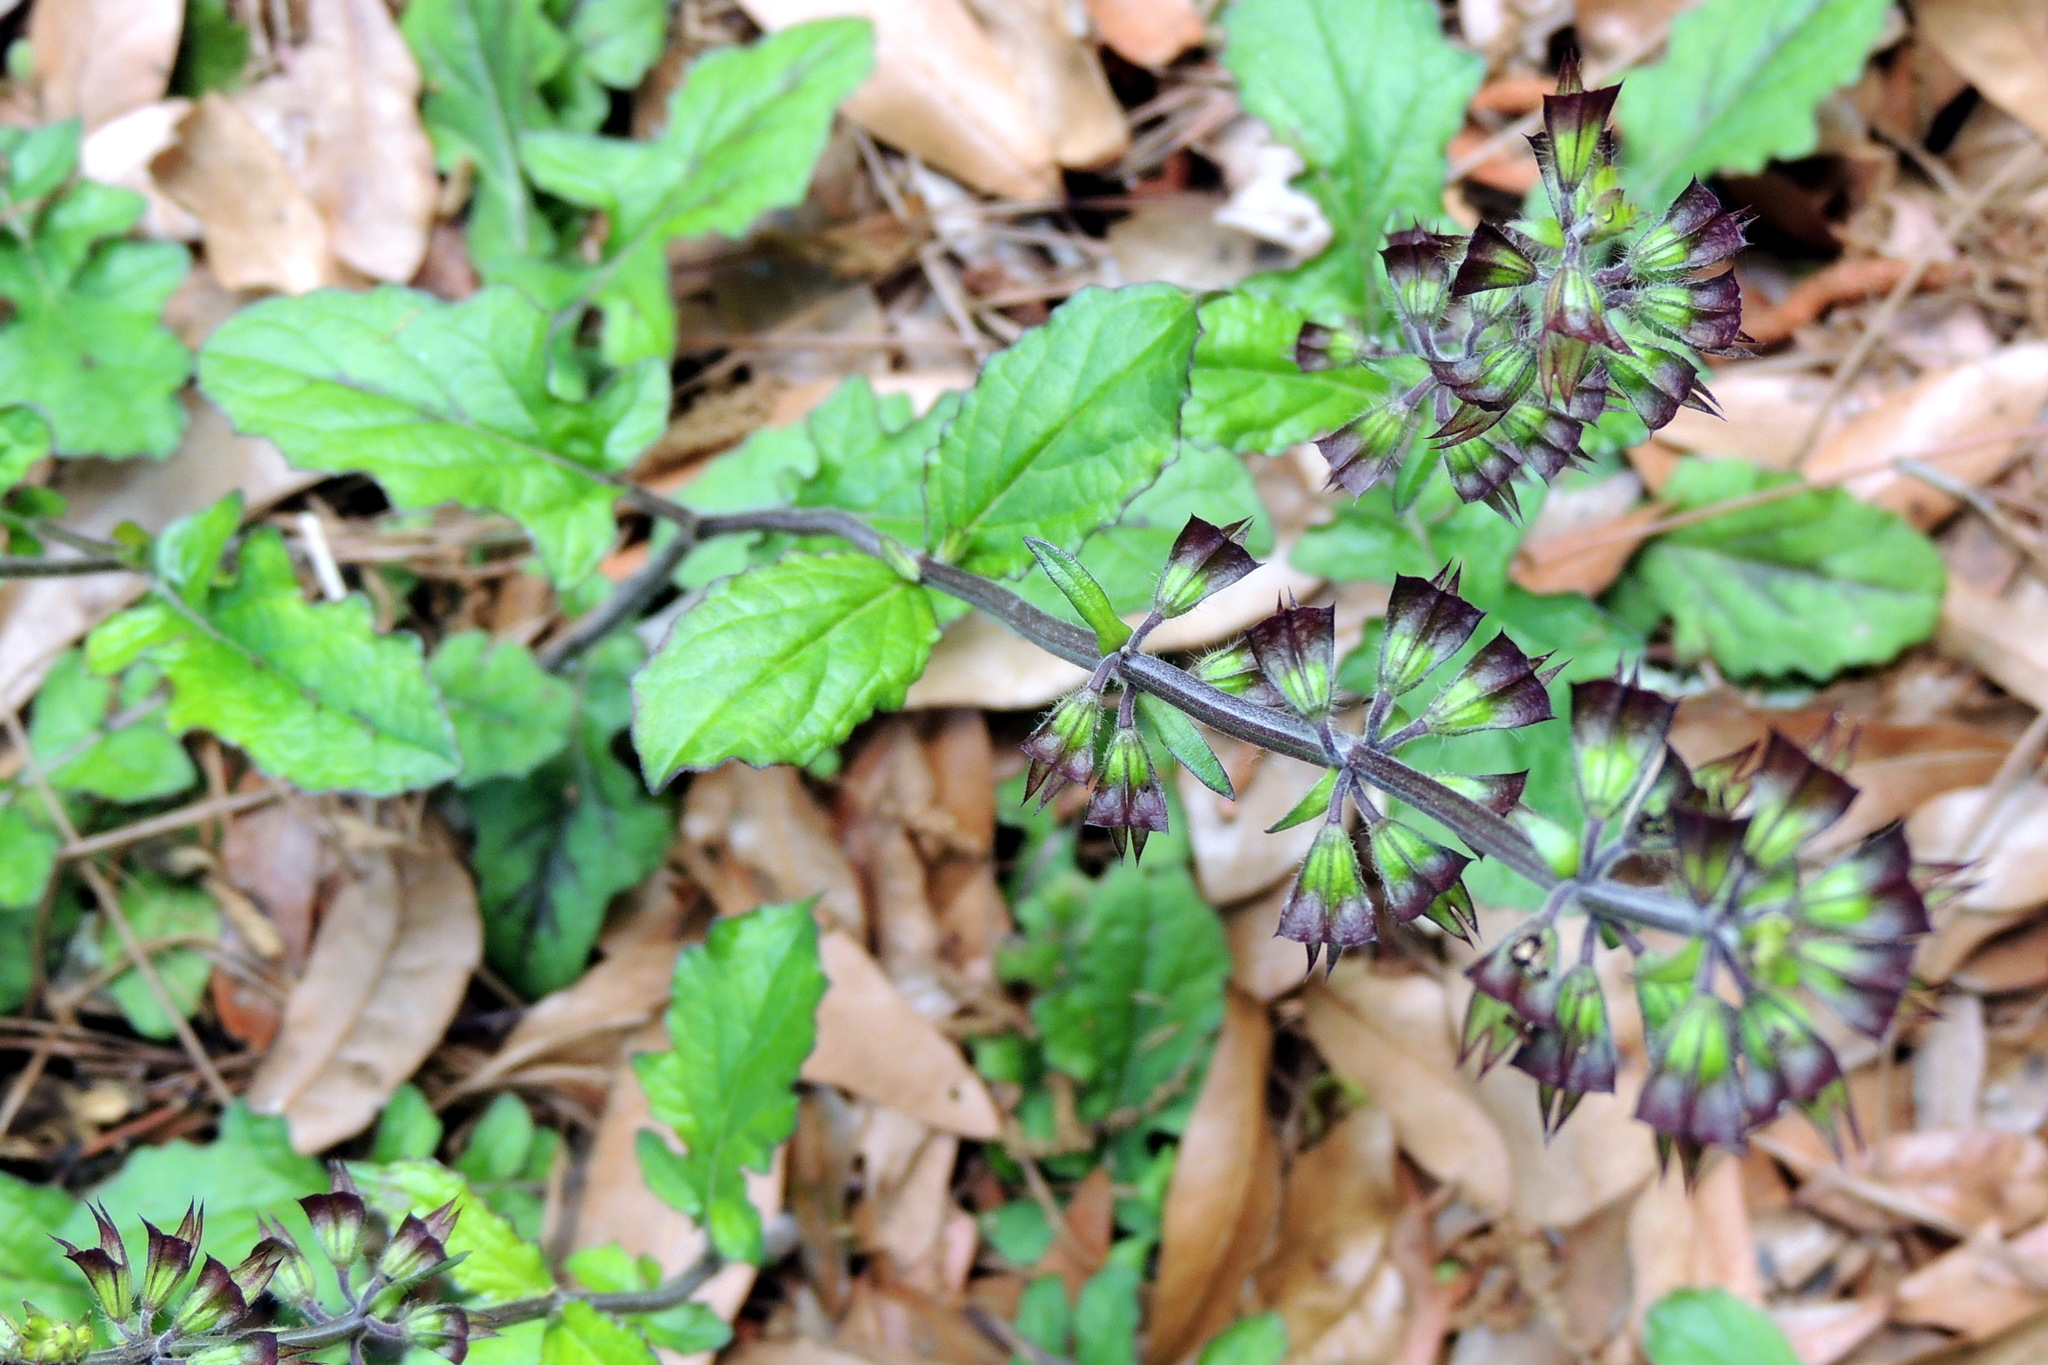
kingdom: Plantae
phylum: Tracheophyta
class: Magnoliopsida
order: Lamiales
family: Lamiaceae
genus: Salvia
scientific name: Salvia lyrata
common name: Cancerweed
